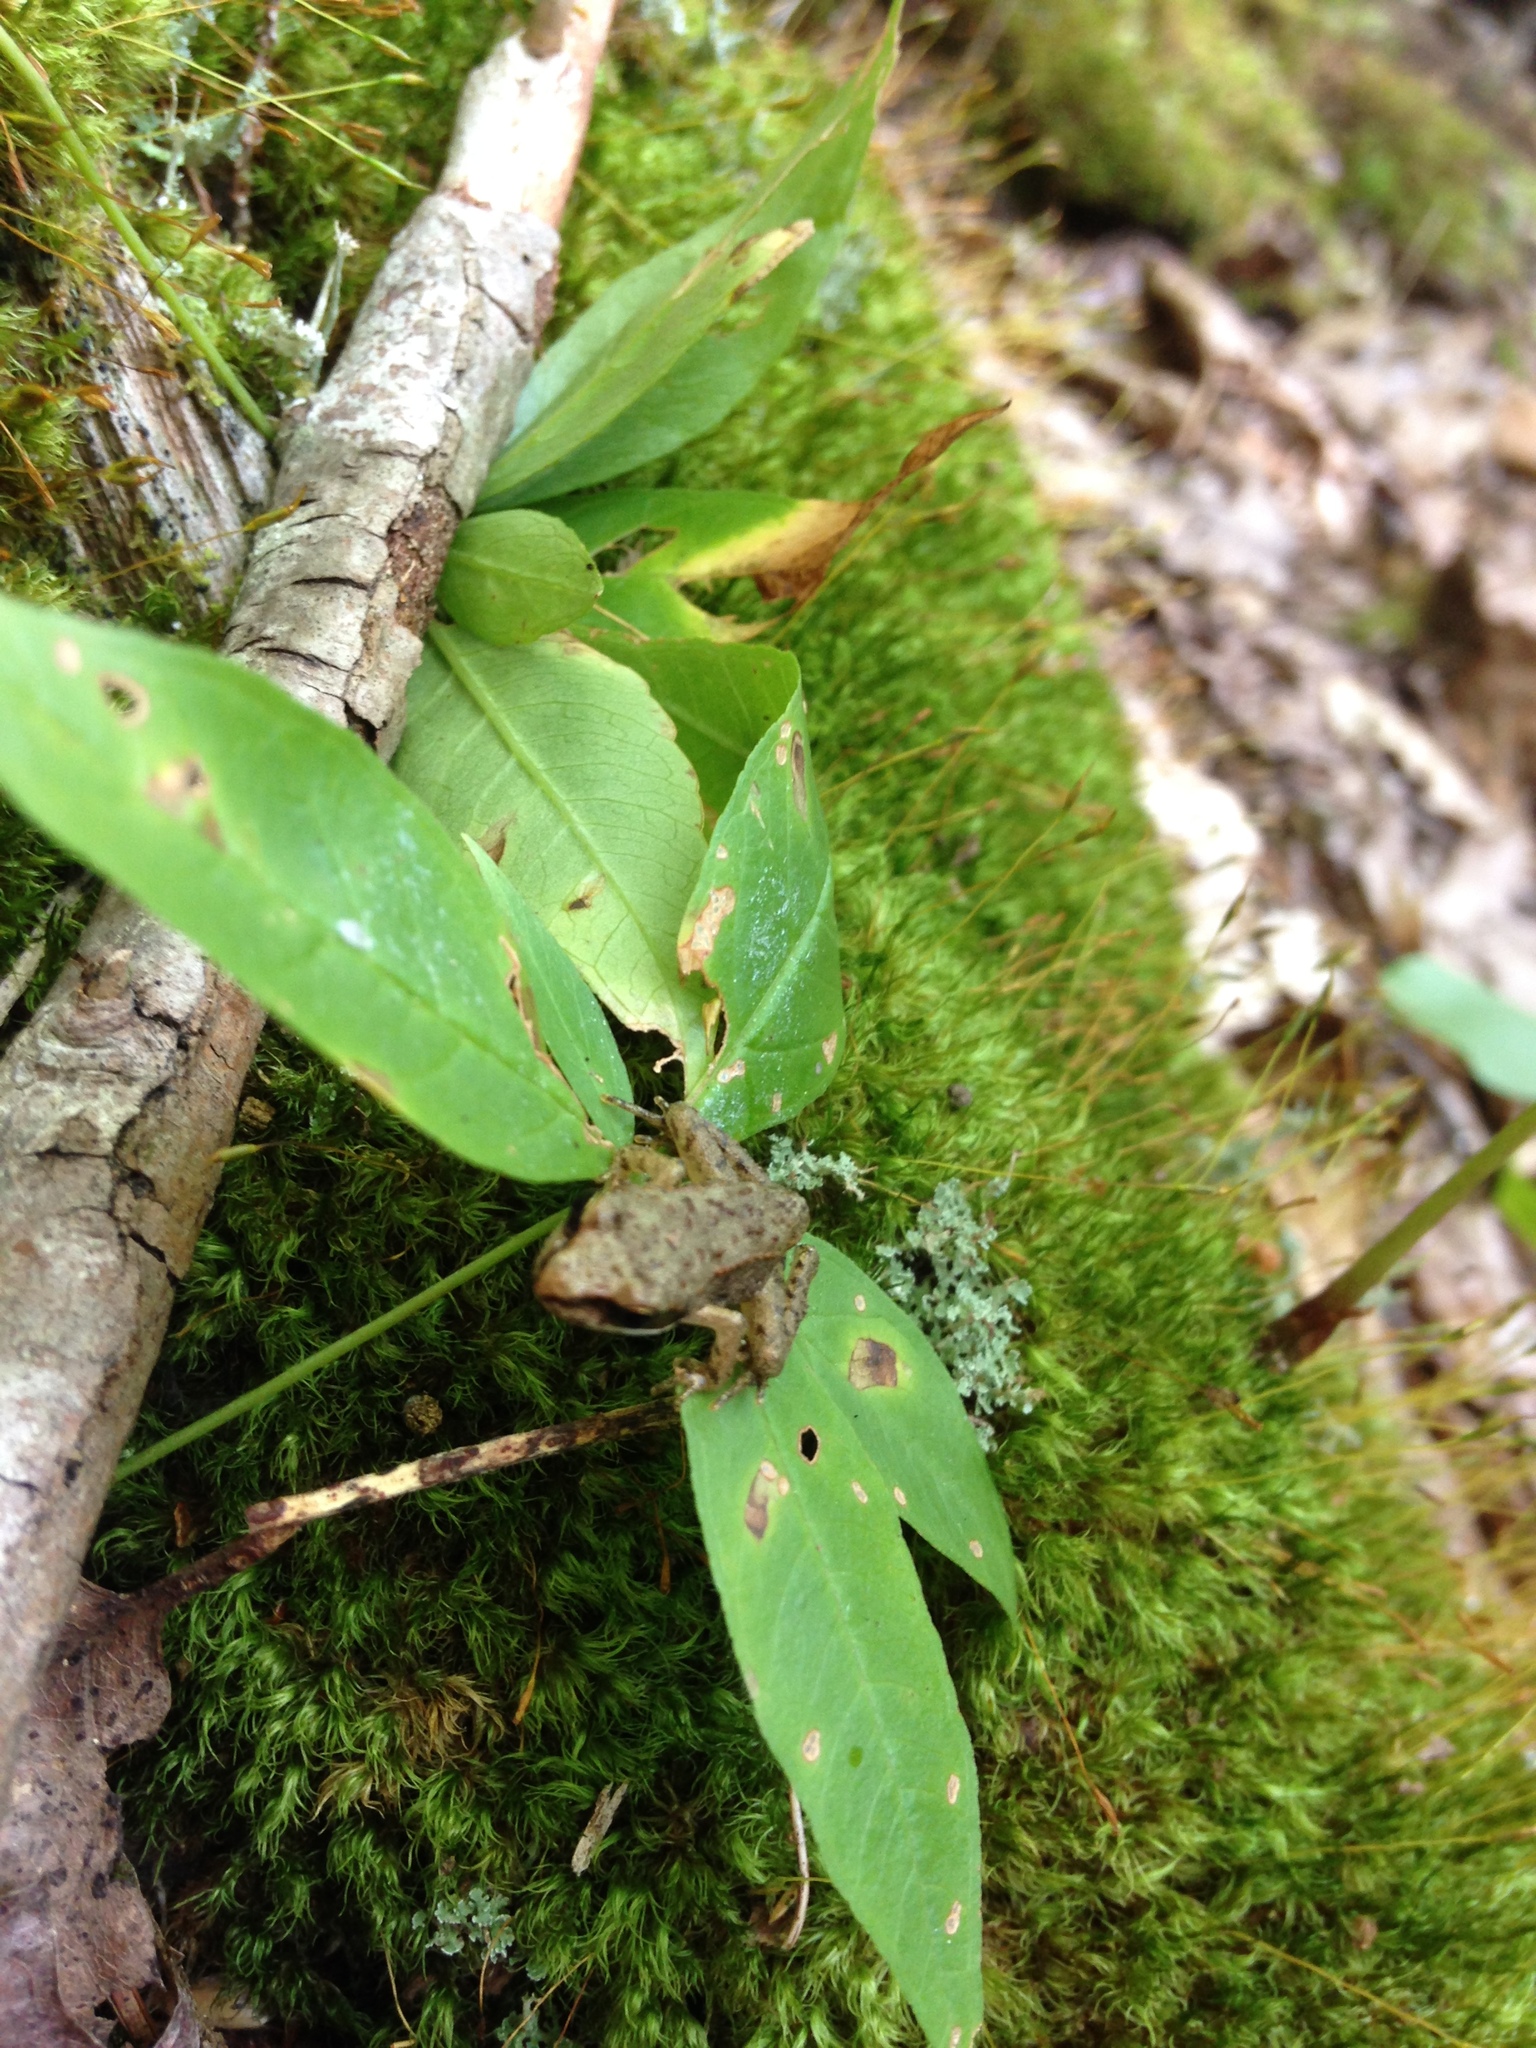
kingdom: Animalia
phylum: Chordata
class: Amphibia
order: Anura
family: Ranidae
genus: Lithobates
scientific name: Lithobates sylvaticus
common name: Wood frog
